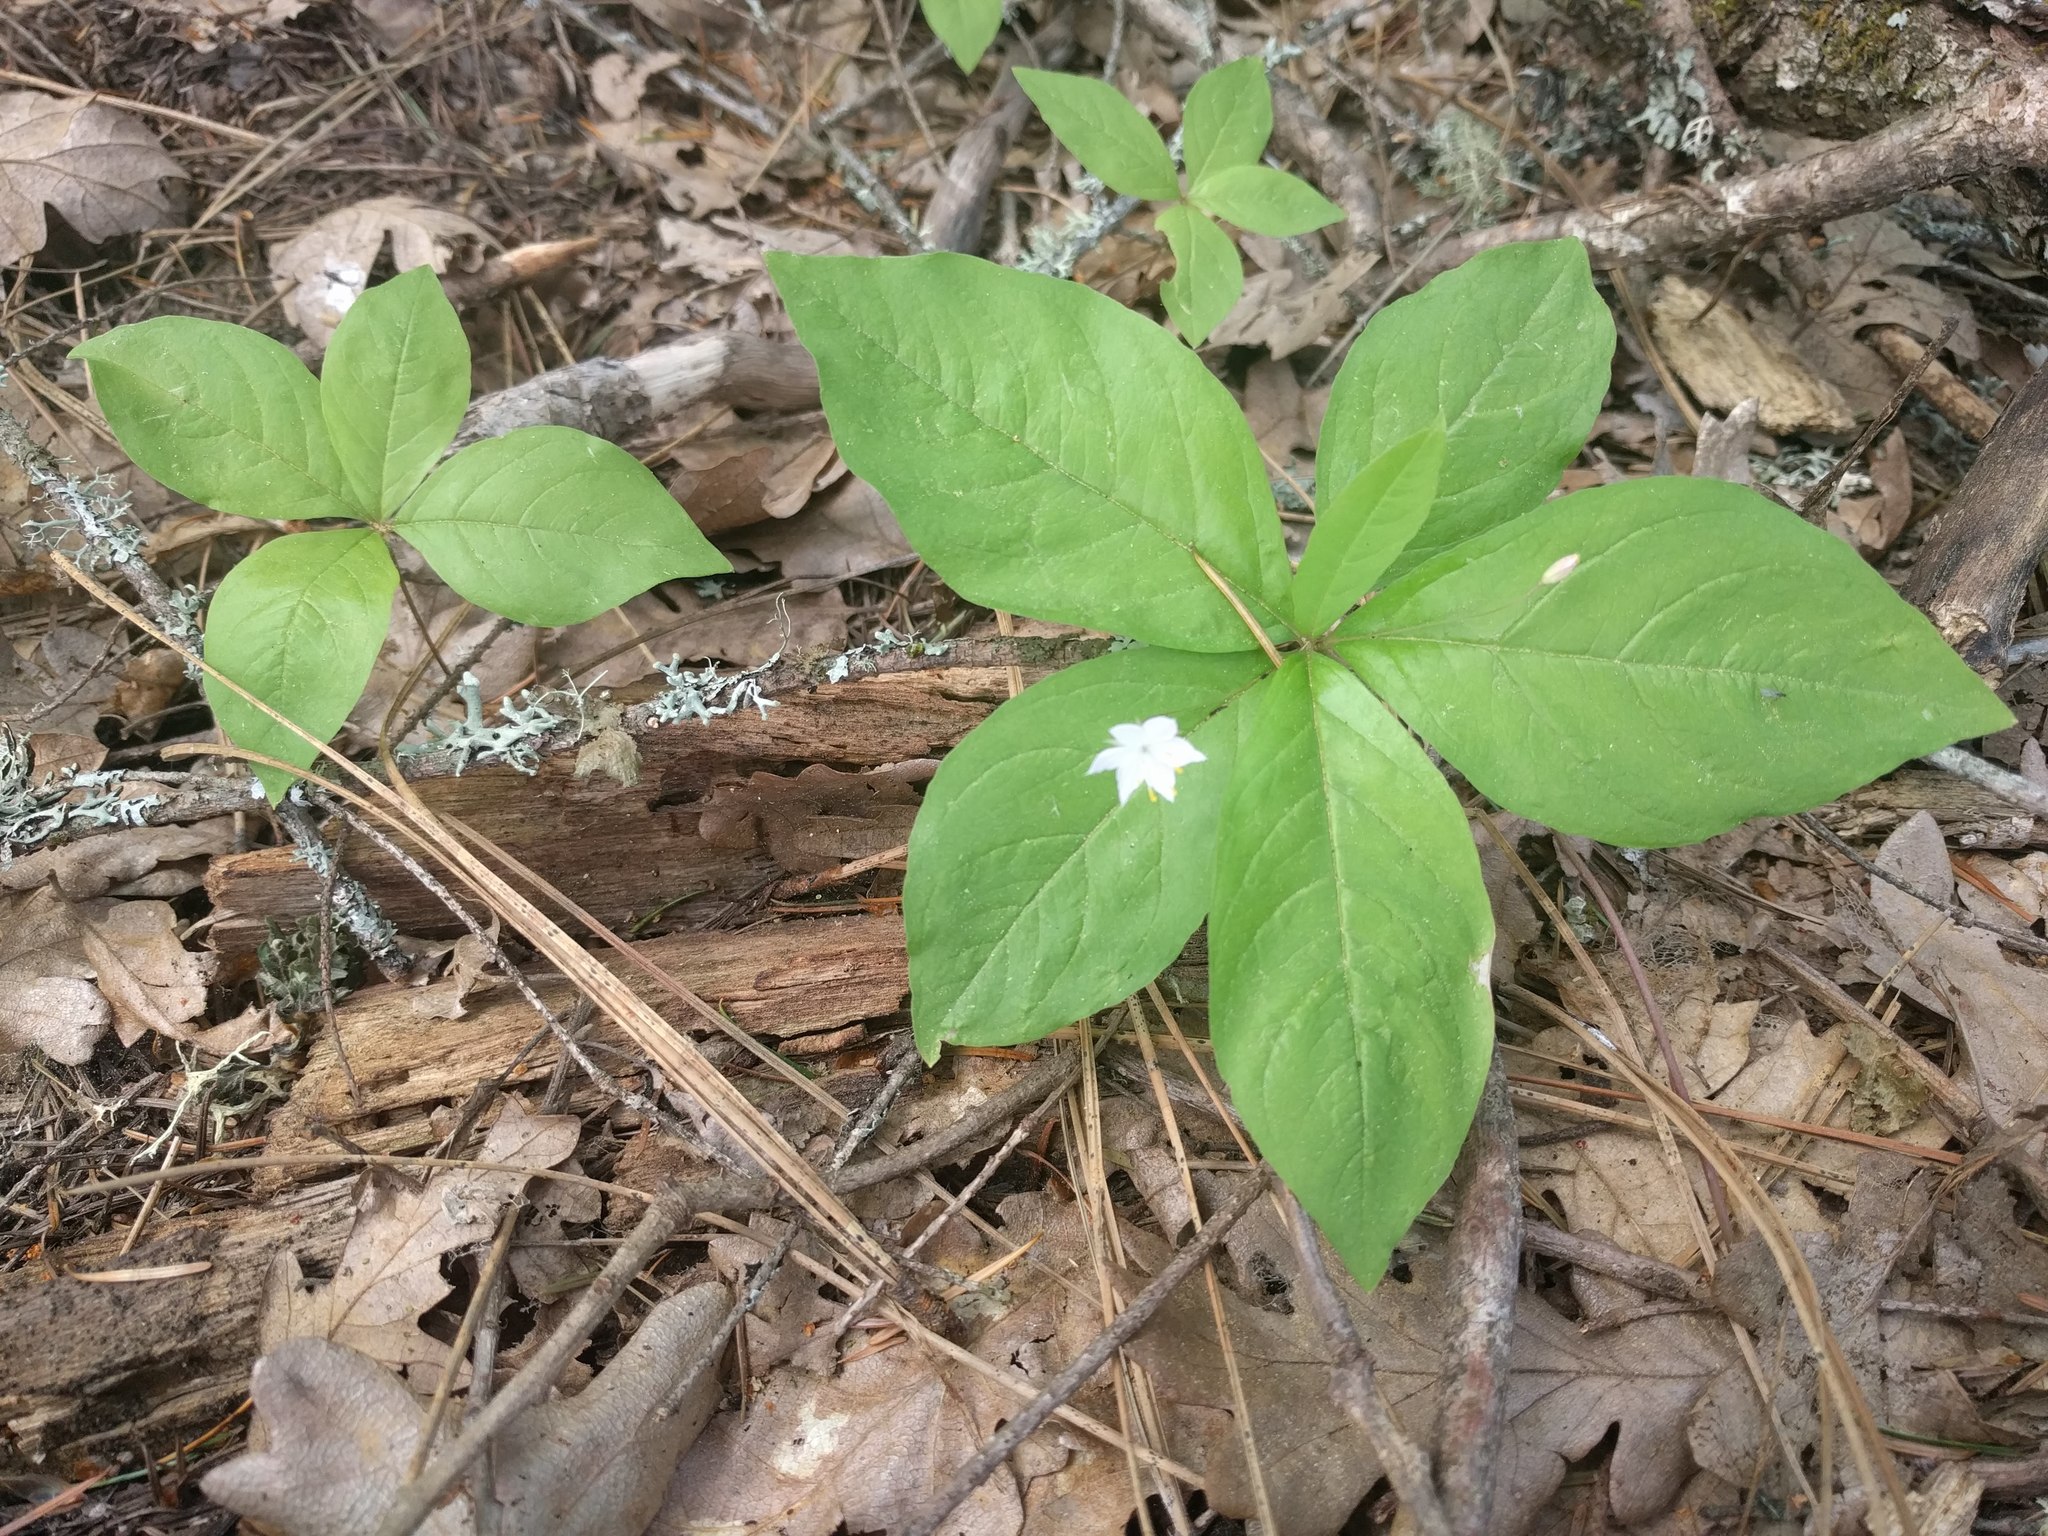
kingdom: Plantae
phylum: Tracheophyta
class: Magnoliopsida
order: Ericales
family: Primulaceae
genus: Lysimachia
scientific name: Lysimachia latifolia
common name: Pacific starflower
